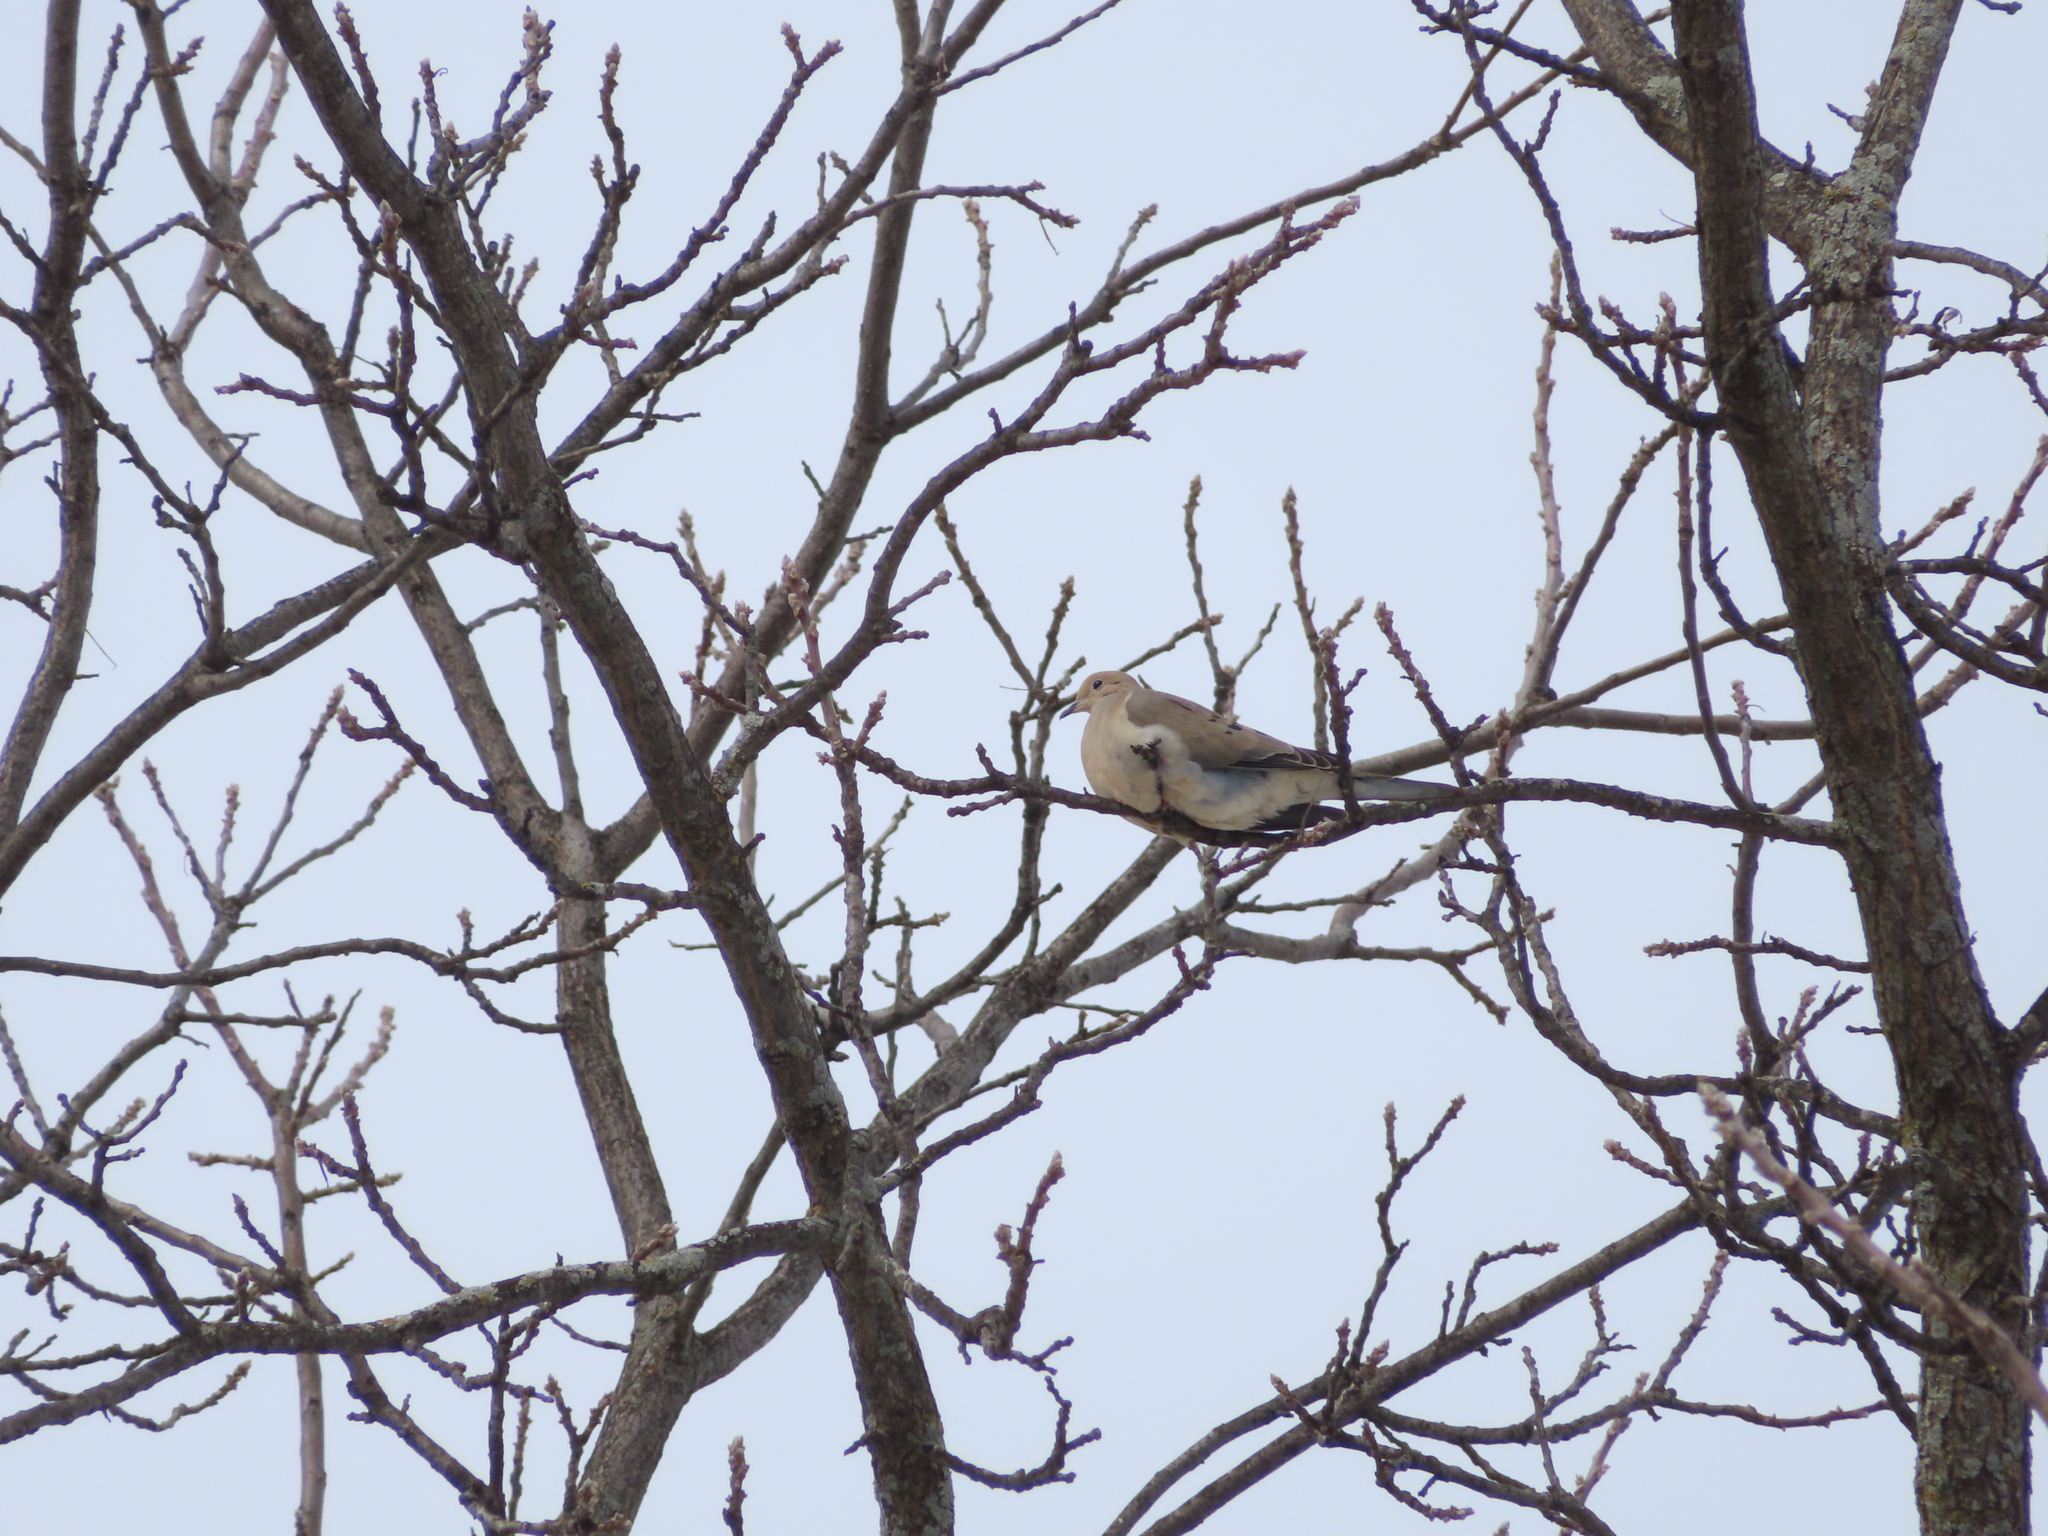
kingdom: Animalia
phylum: Chordata
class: Aves
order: Columbiformes
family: Columbidae
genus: Zenaida
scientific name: Zenaida macroura
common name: Mourning dove
